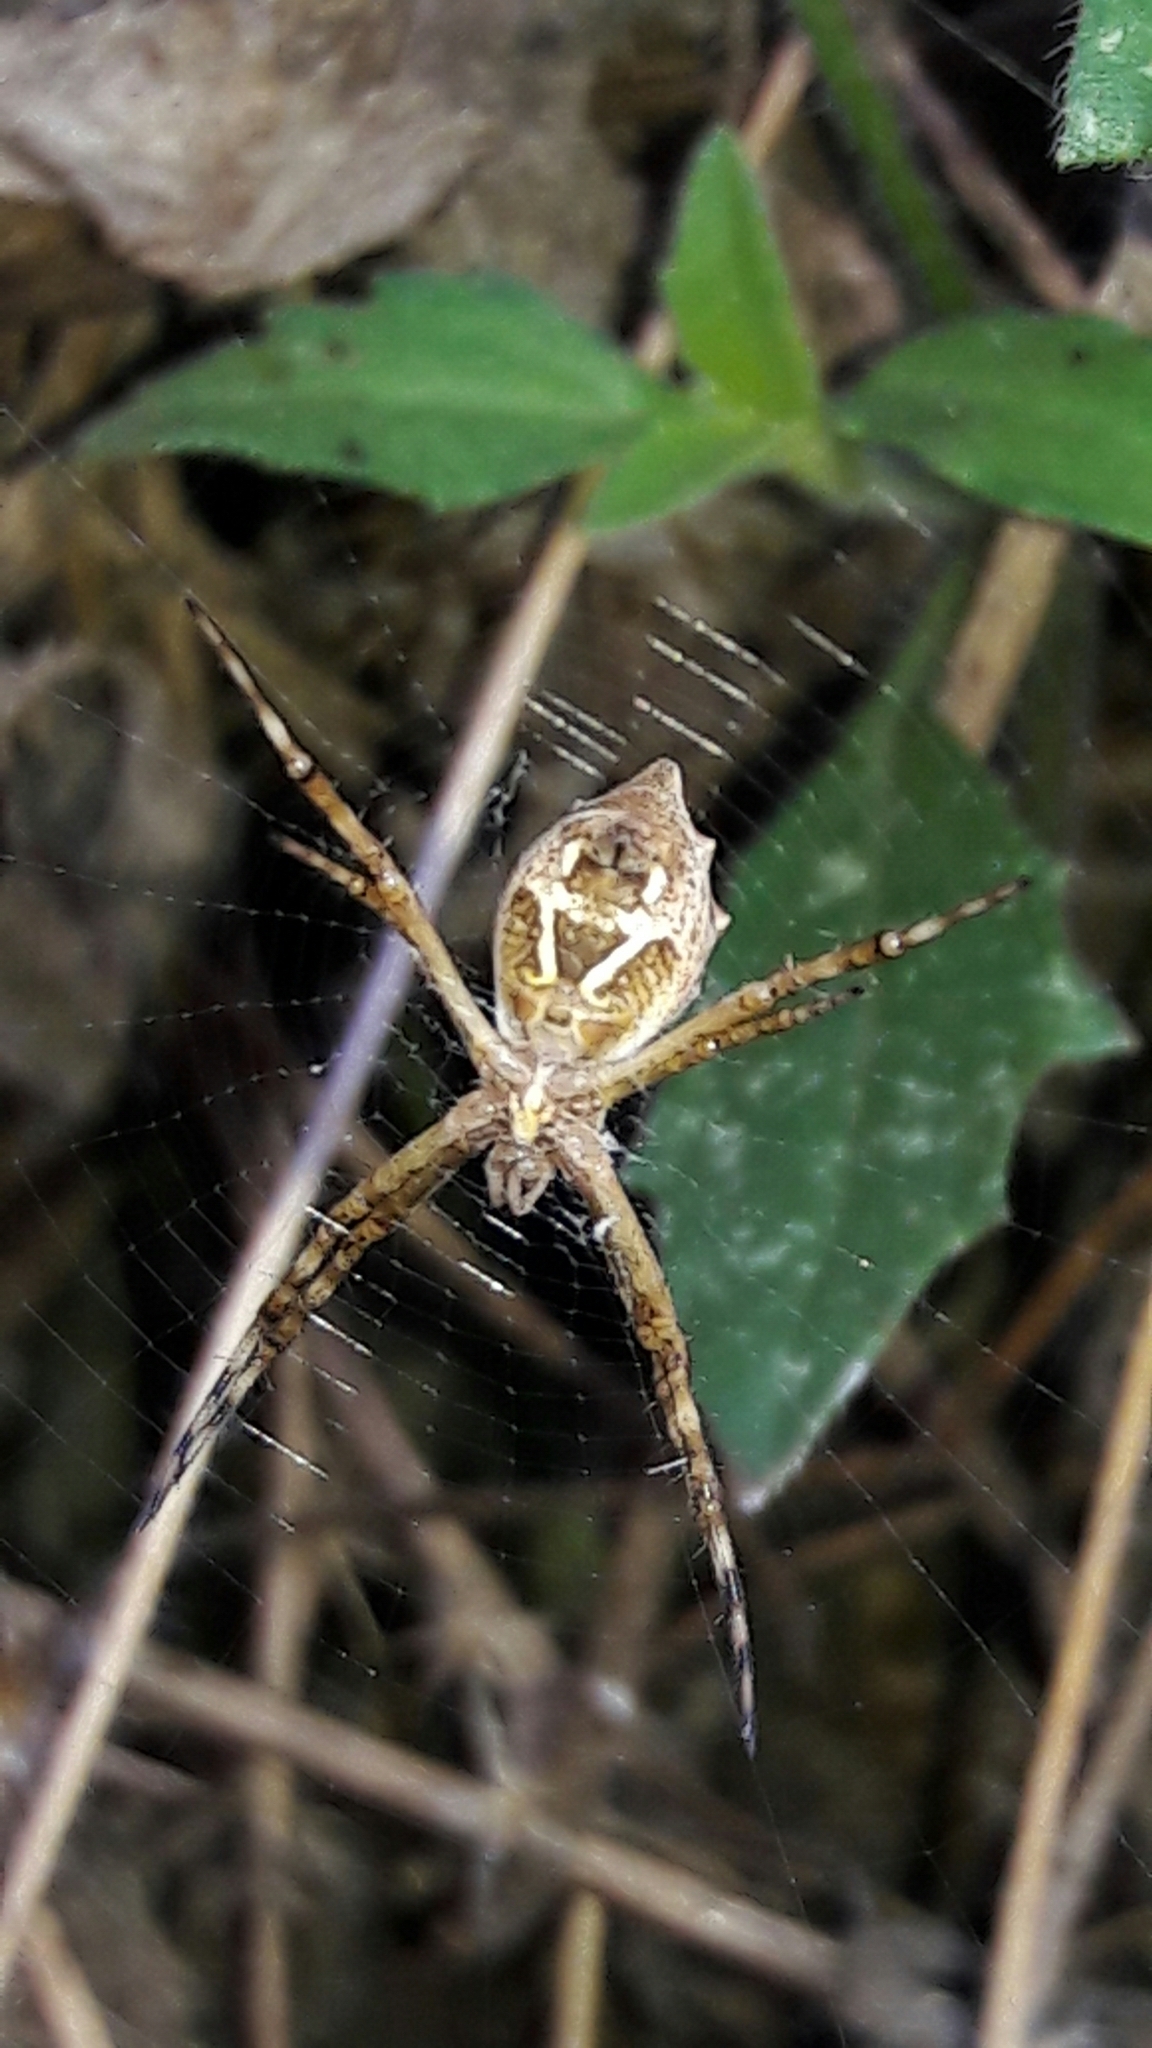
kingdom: Animalia
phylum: Arthropoda
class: Arachnida
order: Araneae
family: Araneidae
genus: Argiope
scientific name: Argiope argentata
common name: Orb weavers
